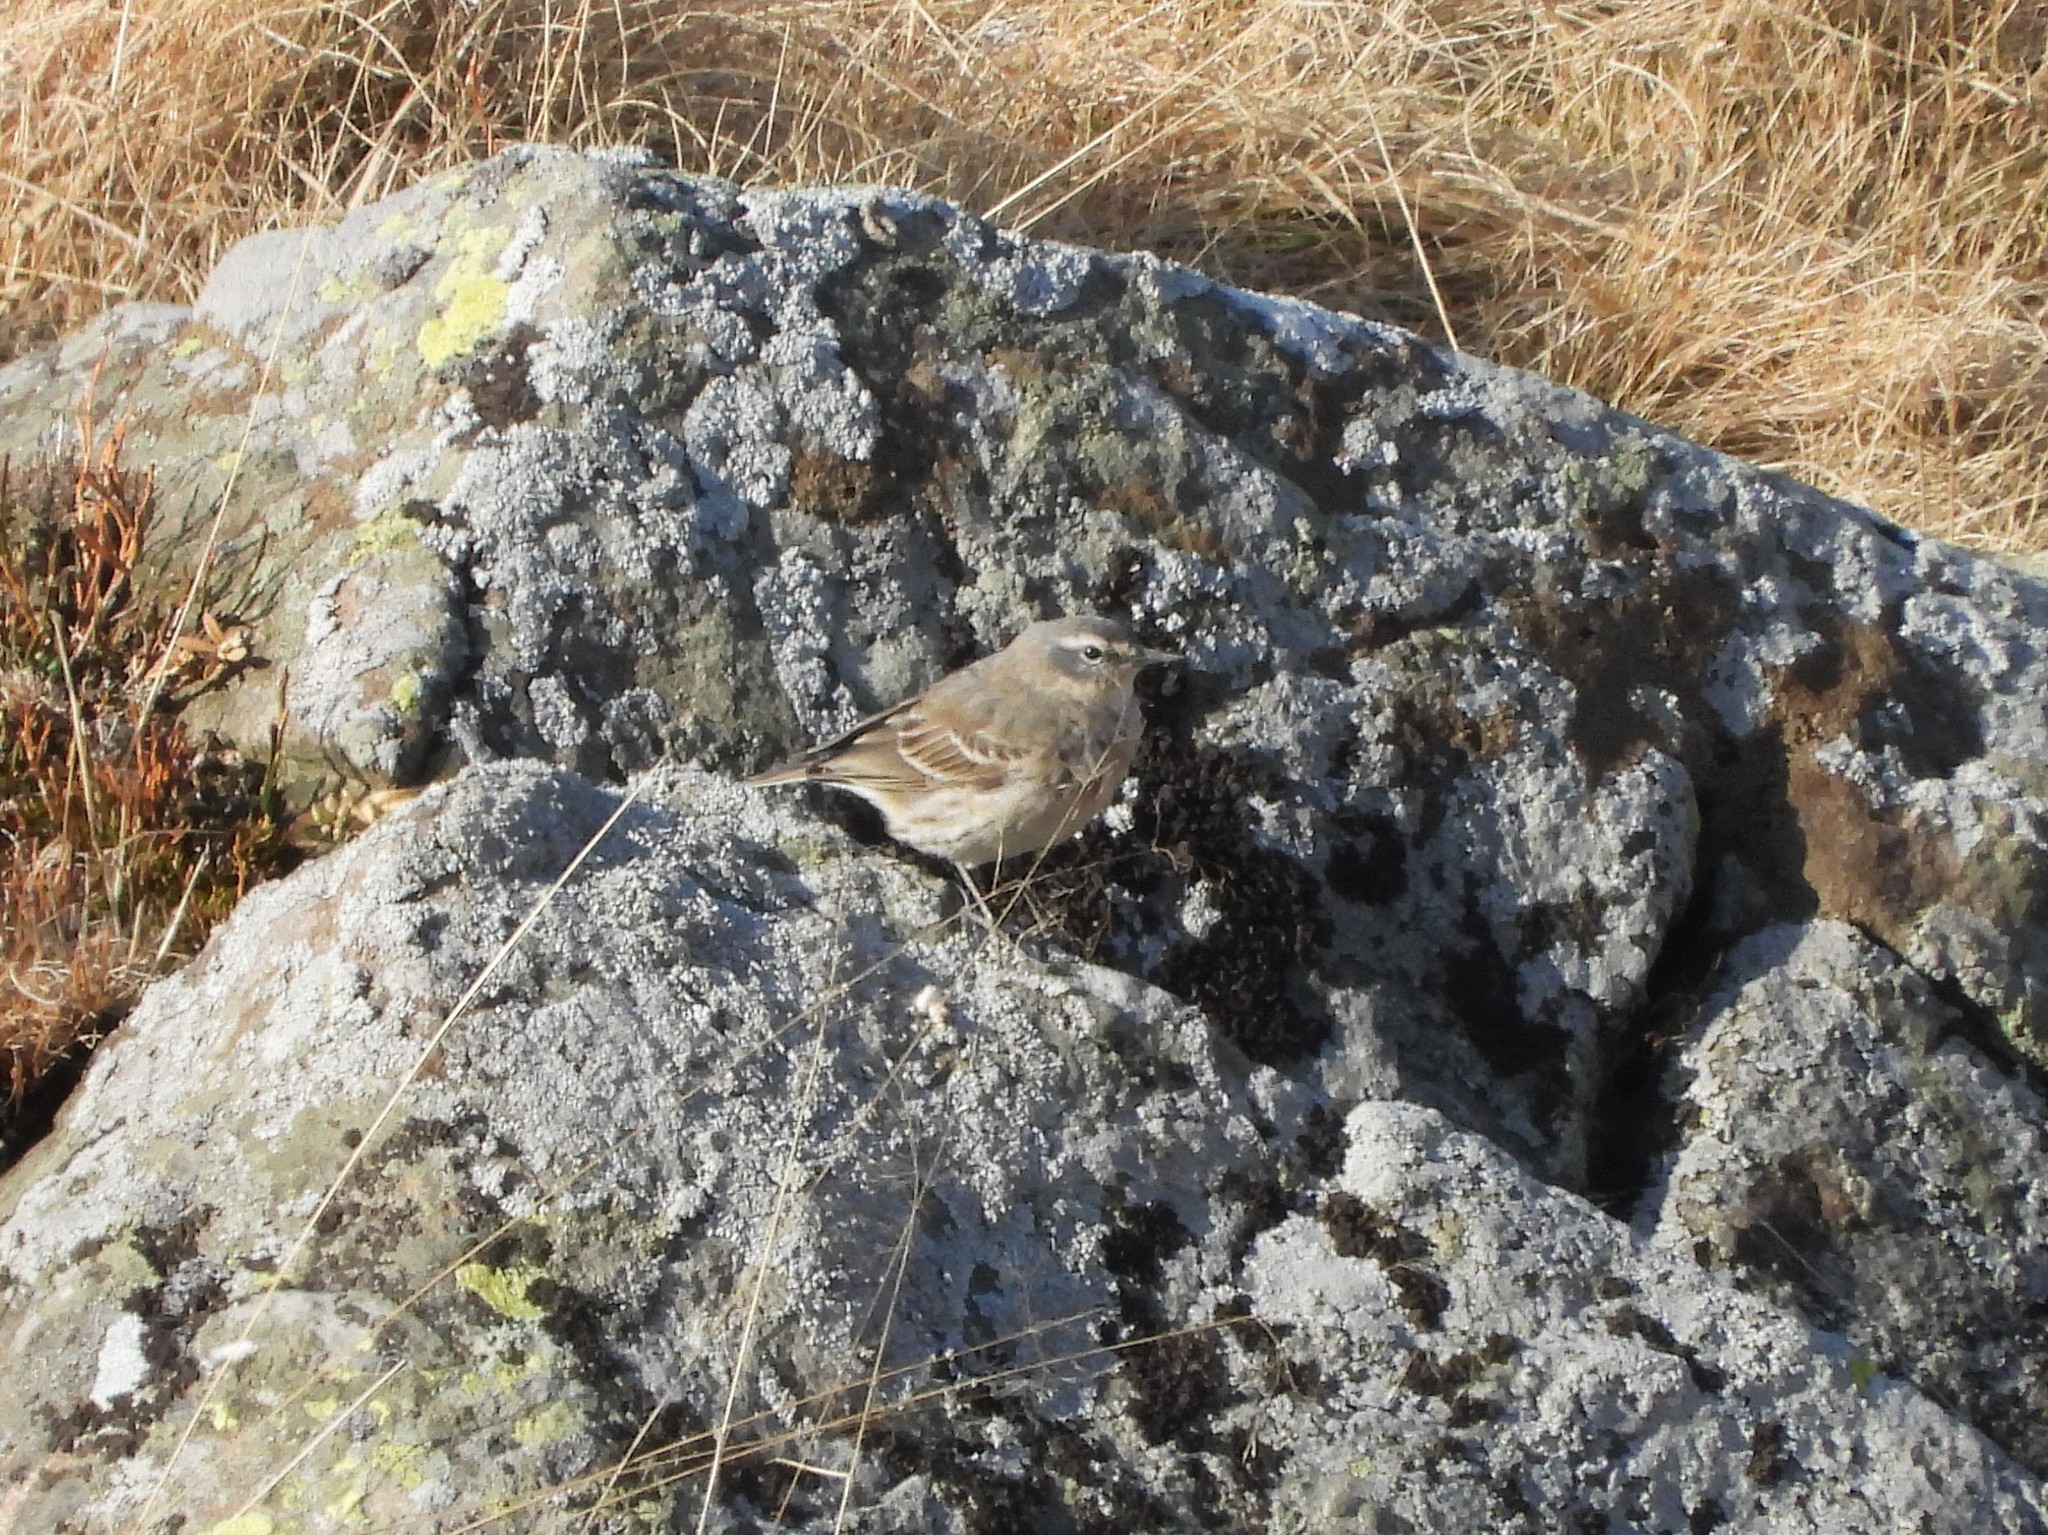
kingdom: Animalia
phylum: Chordata
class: Aves
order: Passeriformes
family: Motacillidae
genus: Anthus
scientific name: Anthus spinoletta
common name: Water pipit
